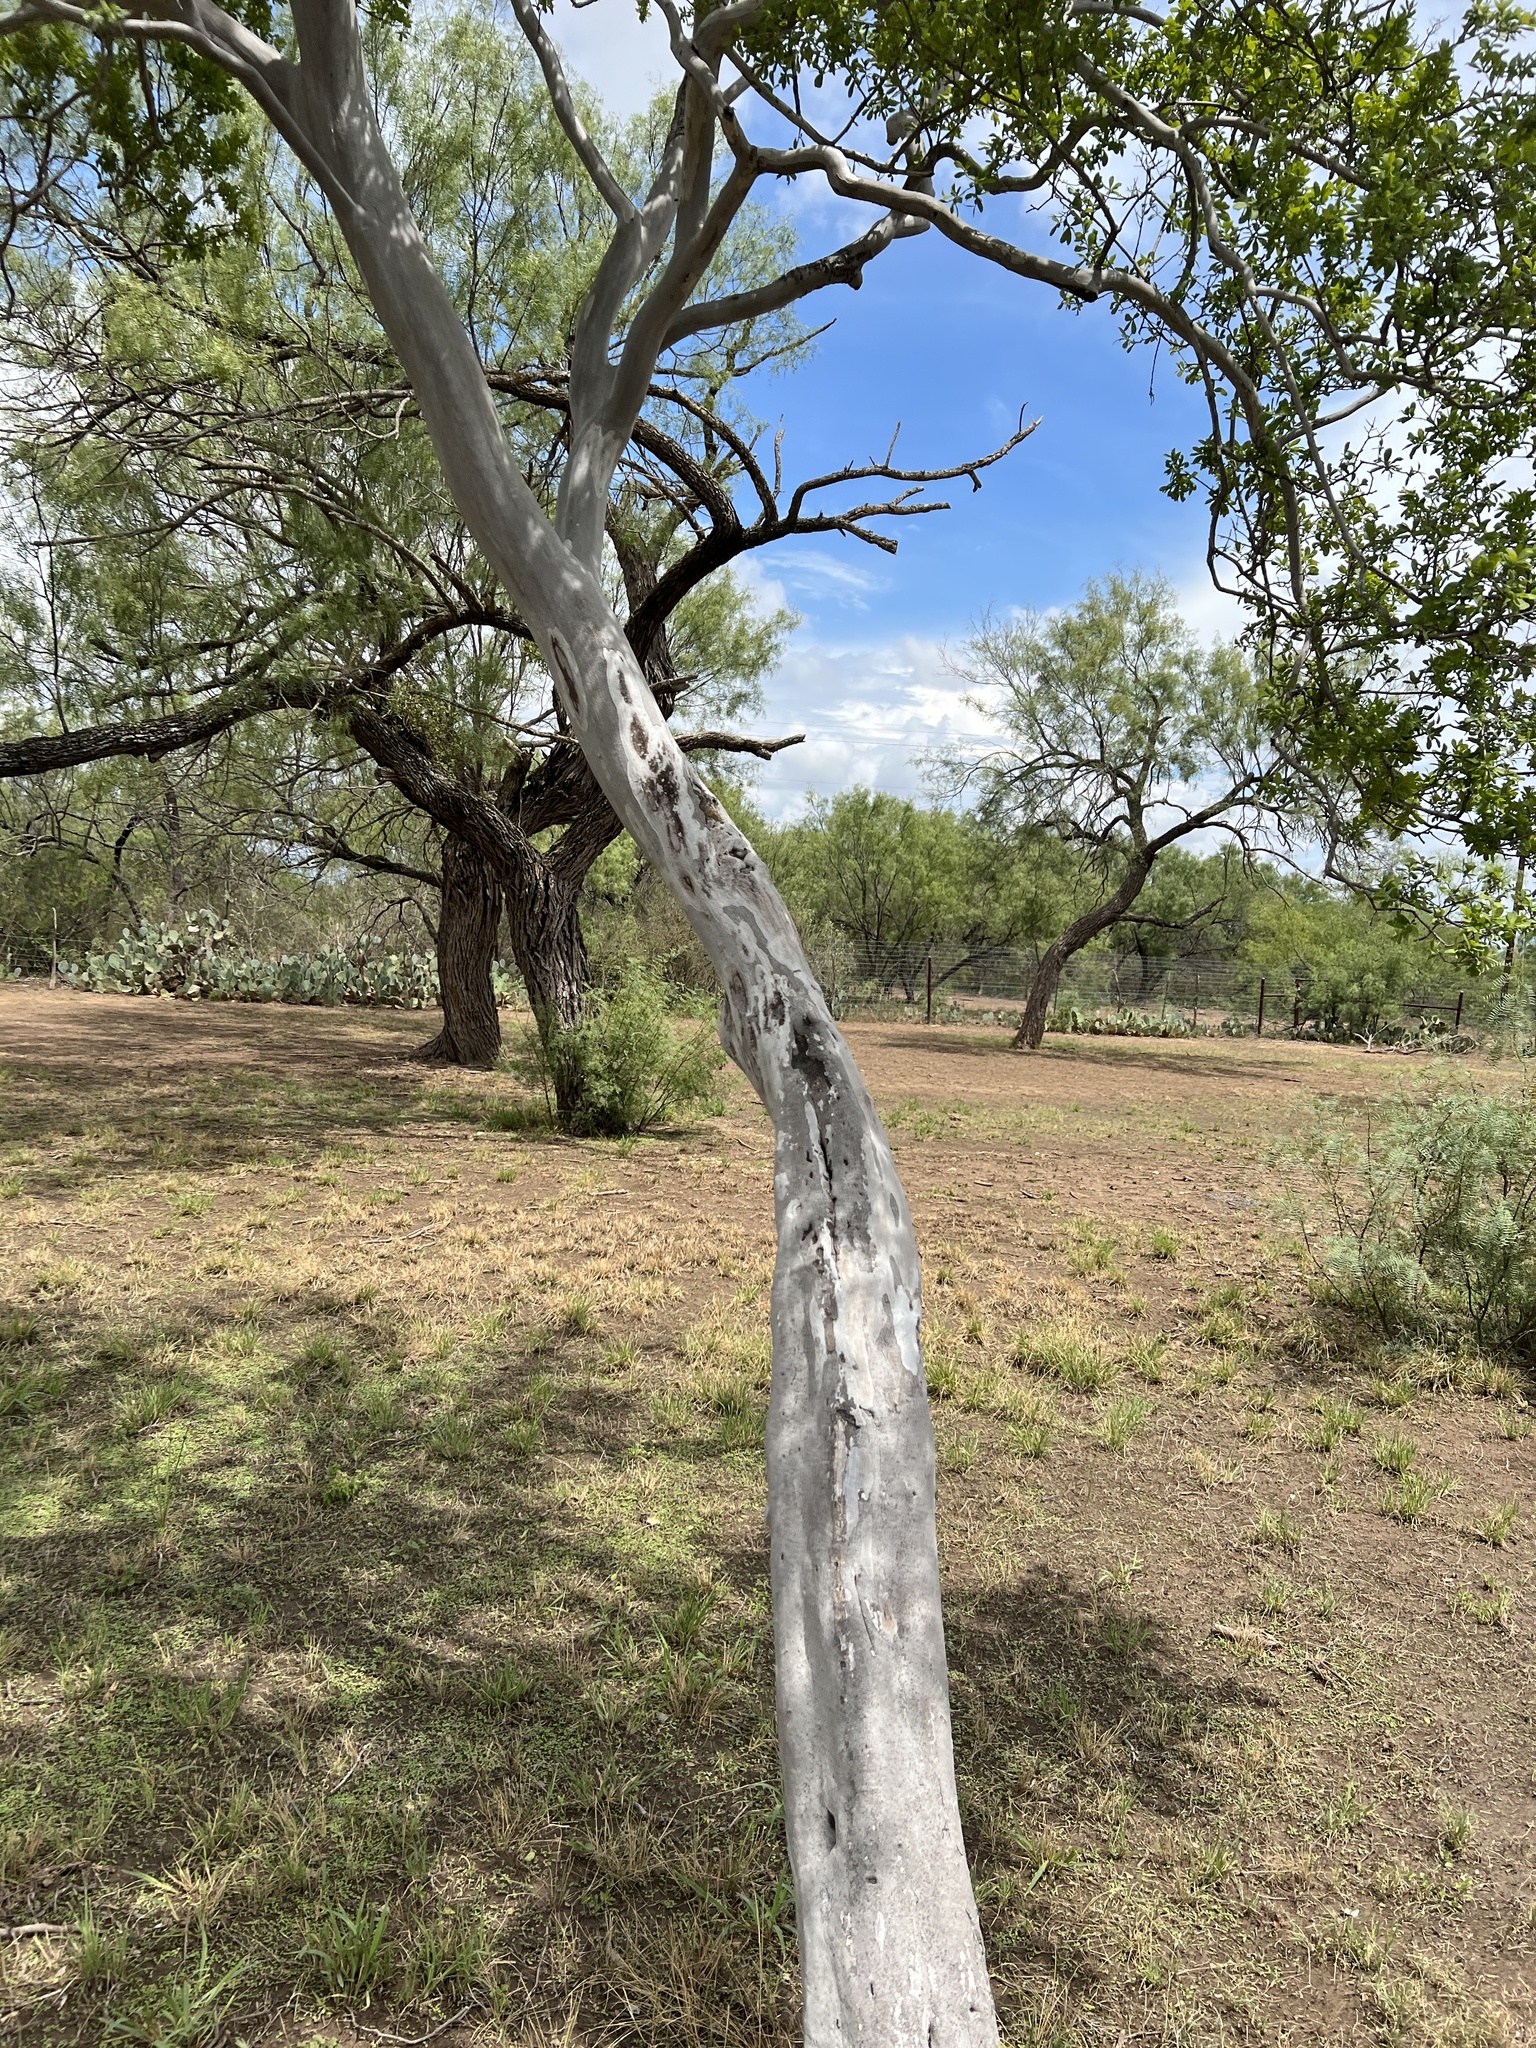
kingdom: Plantae
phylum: Tracheophyta
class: Magnoliopsida
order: Ericales
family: Ebenaceae
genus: Diospyros
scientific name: Diospyros texana
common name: Texas persimmon
